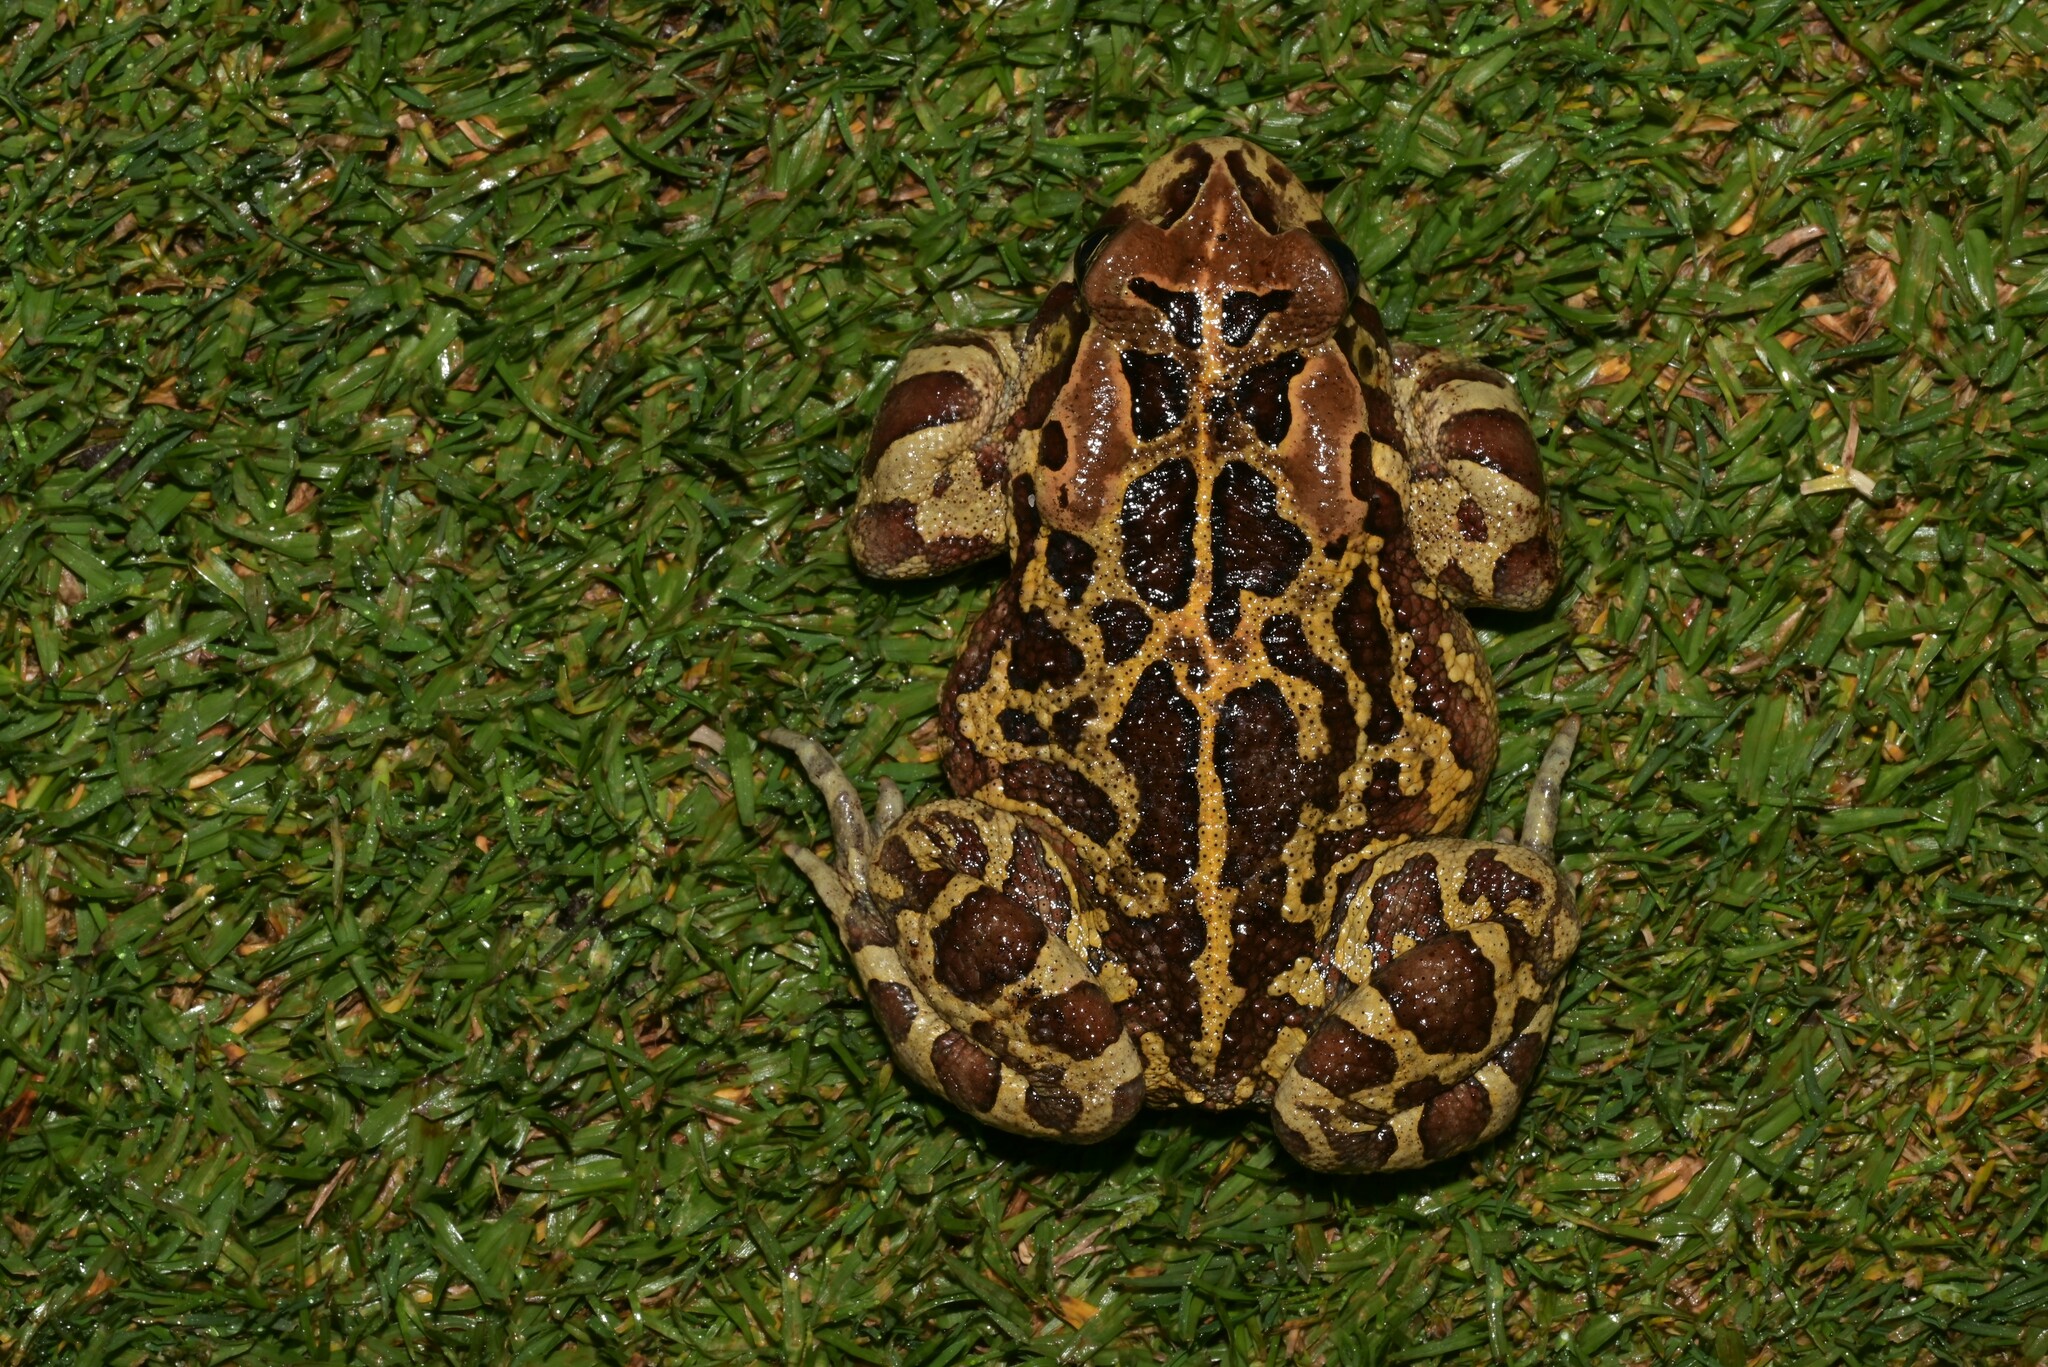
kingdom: Animalia
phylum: Chordata
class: Amphibia
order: Anura
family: Bufonidae
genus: Sclerophrys
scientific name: Sclerophrys pantherina
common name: Panther toad
